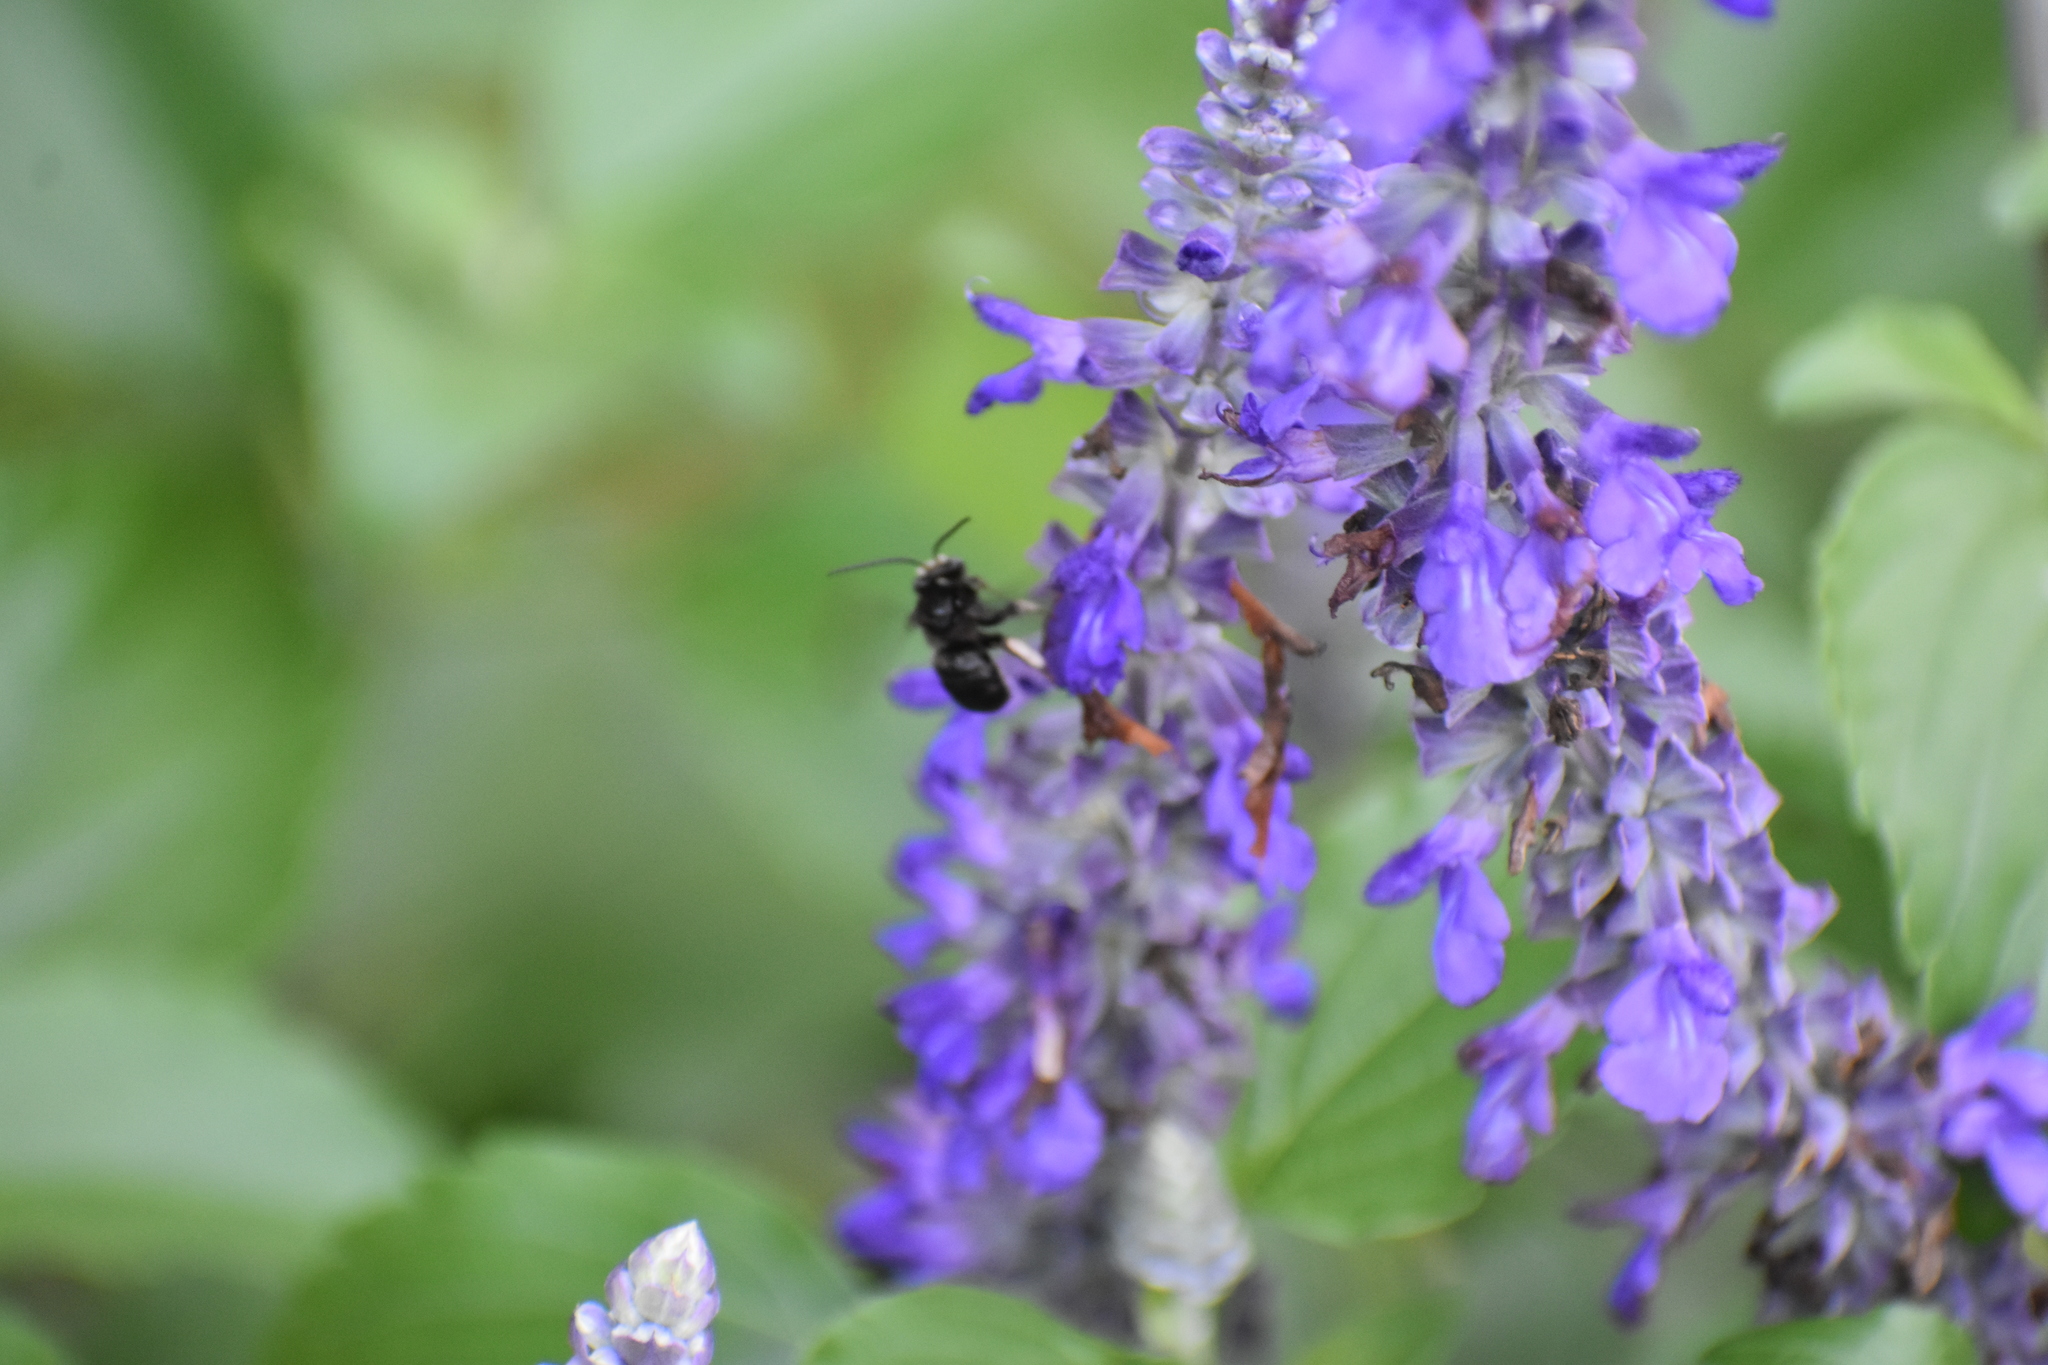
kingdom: Animalia
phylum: Arthropoda
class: Insecta
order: Hymenoptera
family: Apidae
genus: Melissodes
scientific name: Melissodes bimaculatus
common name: Two-spotted long-horned bee
